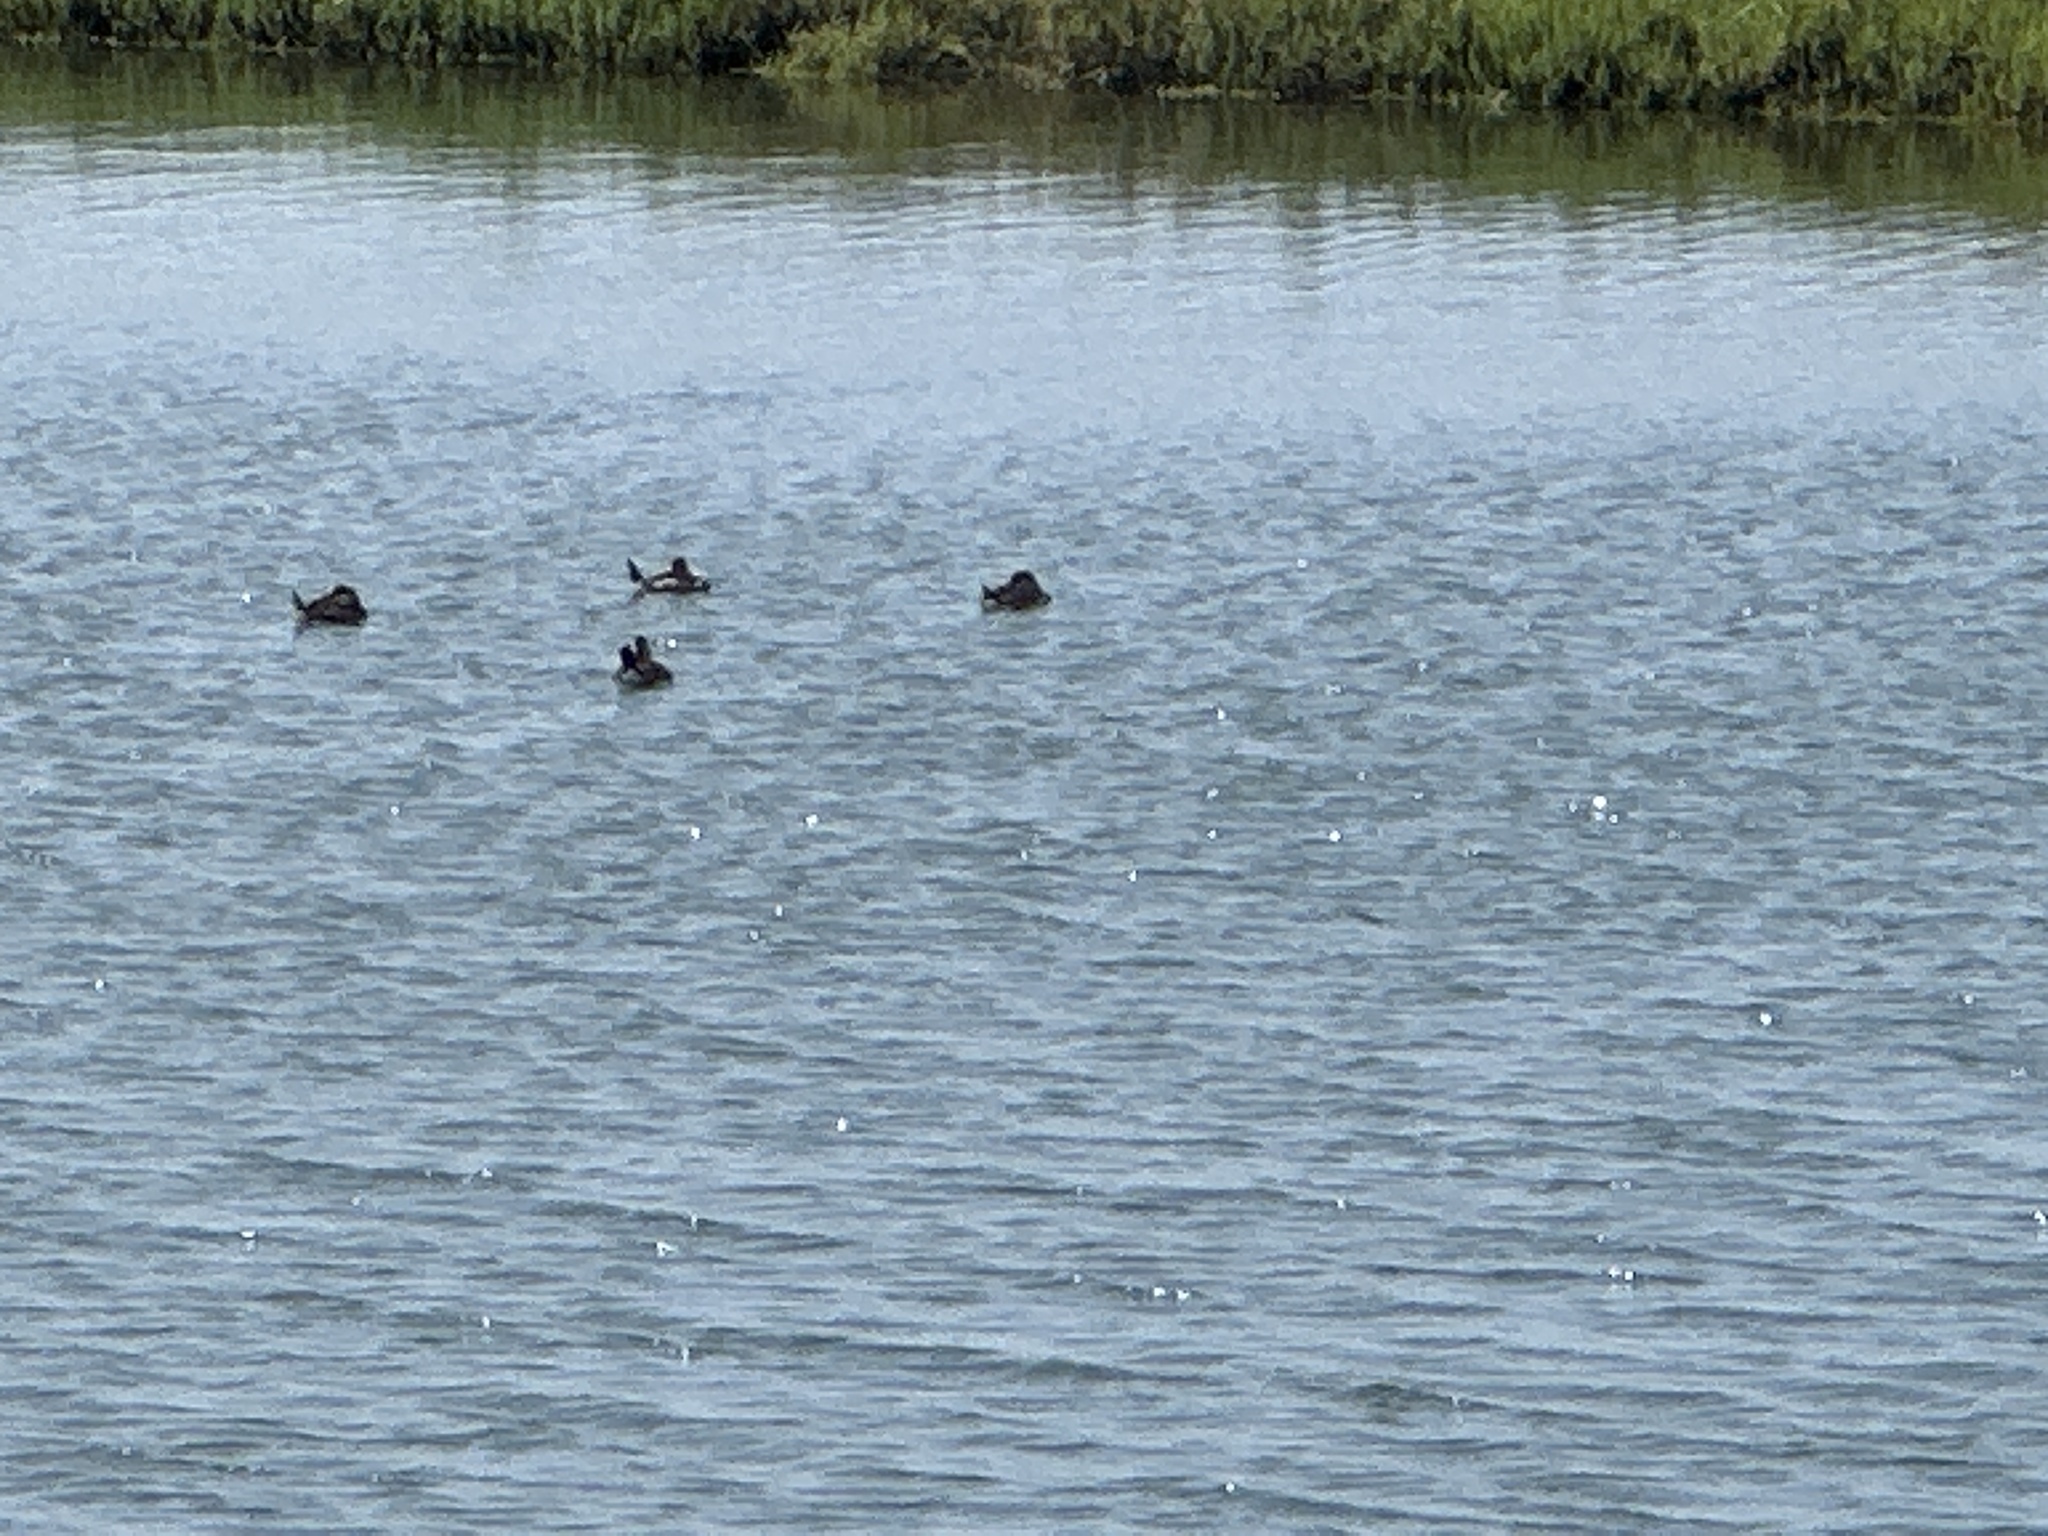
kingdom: Animalia
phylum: Chordata
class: Aves
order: Anseriformes
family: Anatidae
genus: Oxyura
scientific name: Oxyura jamaicensis
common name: Ruddy duck
